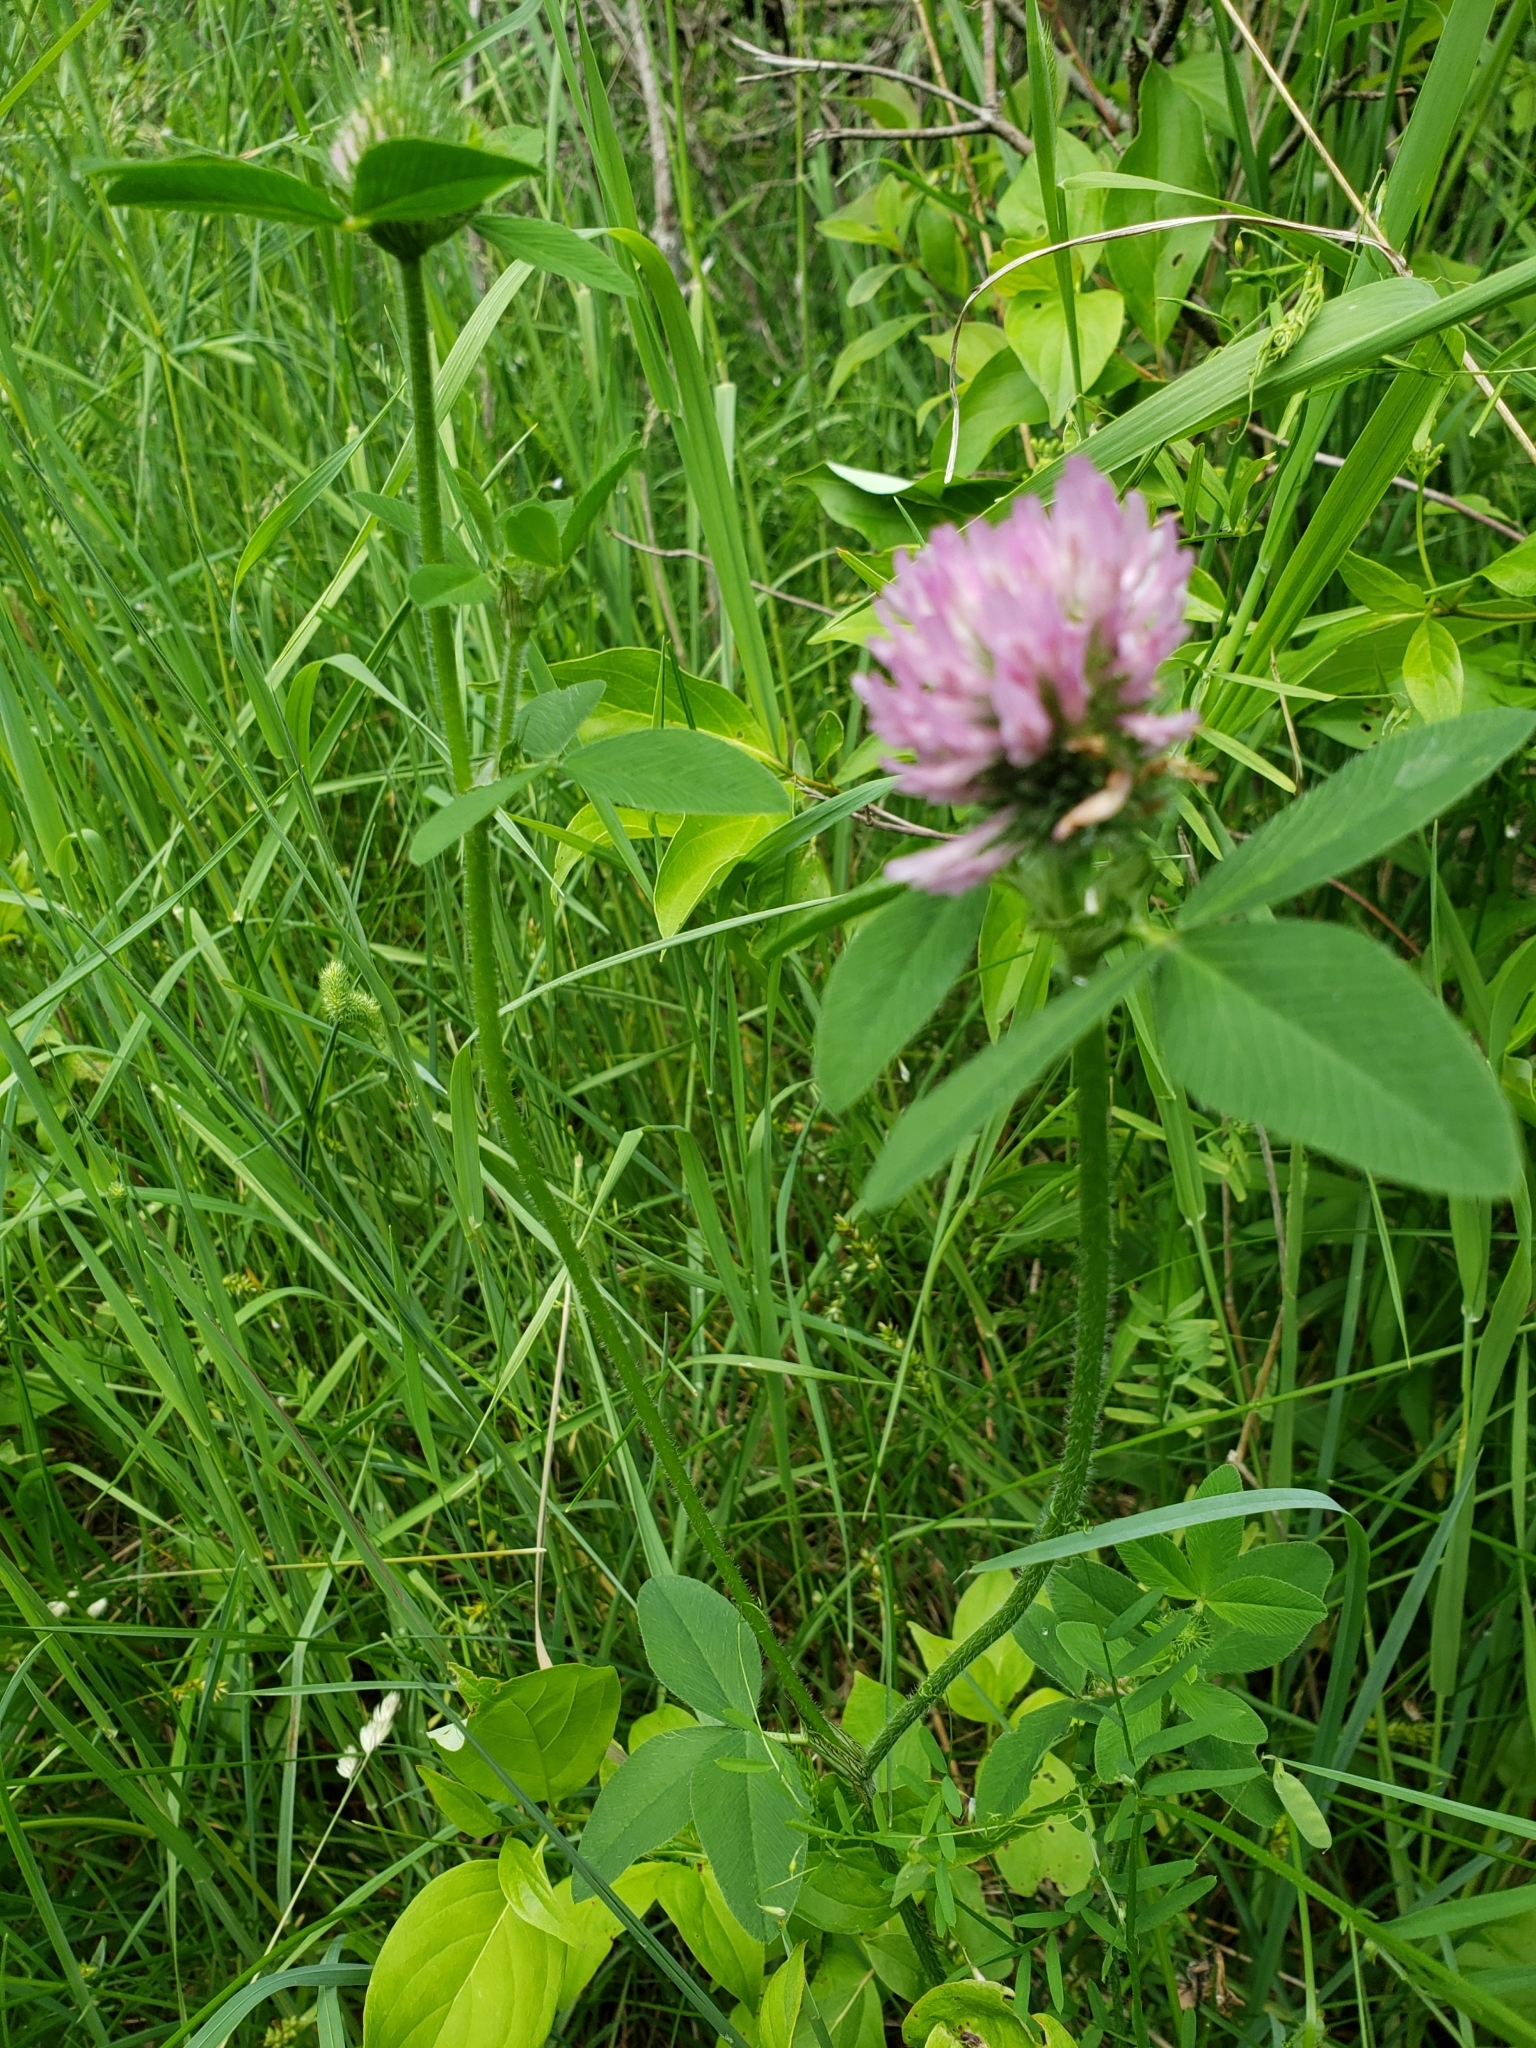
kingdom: Plantae
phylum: Tracheophyta
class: Magnoliopsida
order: Fabales
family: Fabaceae
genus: Trifolium
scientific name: Trifolium pratense
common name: Red clover
